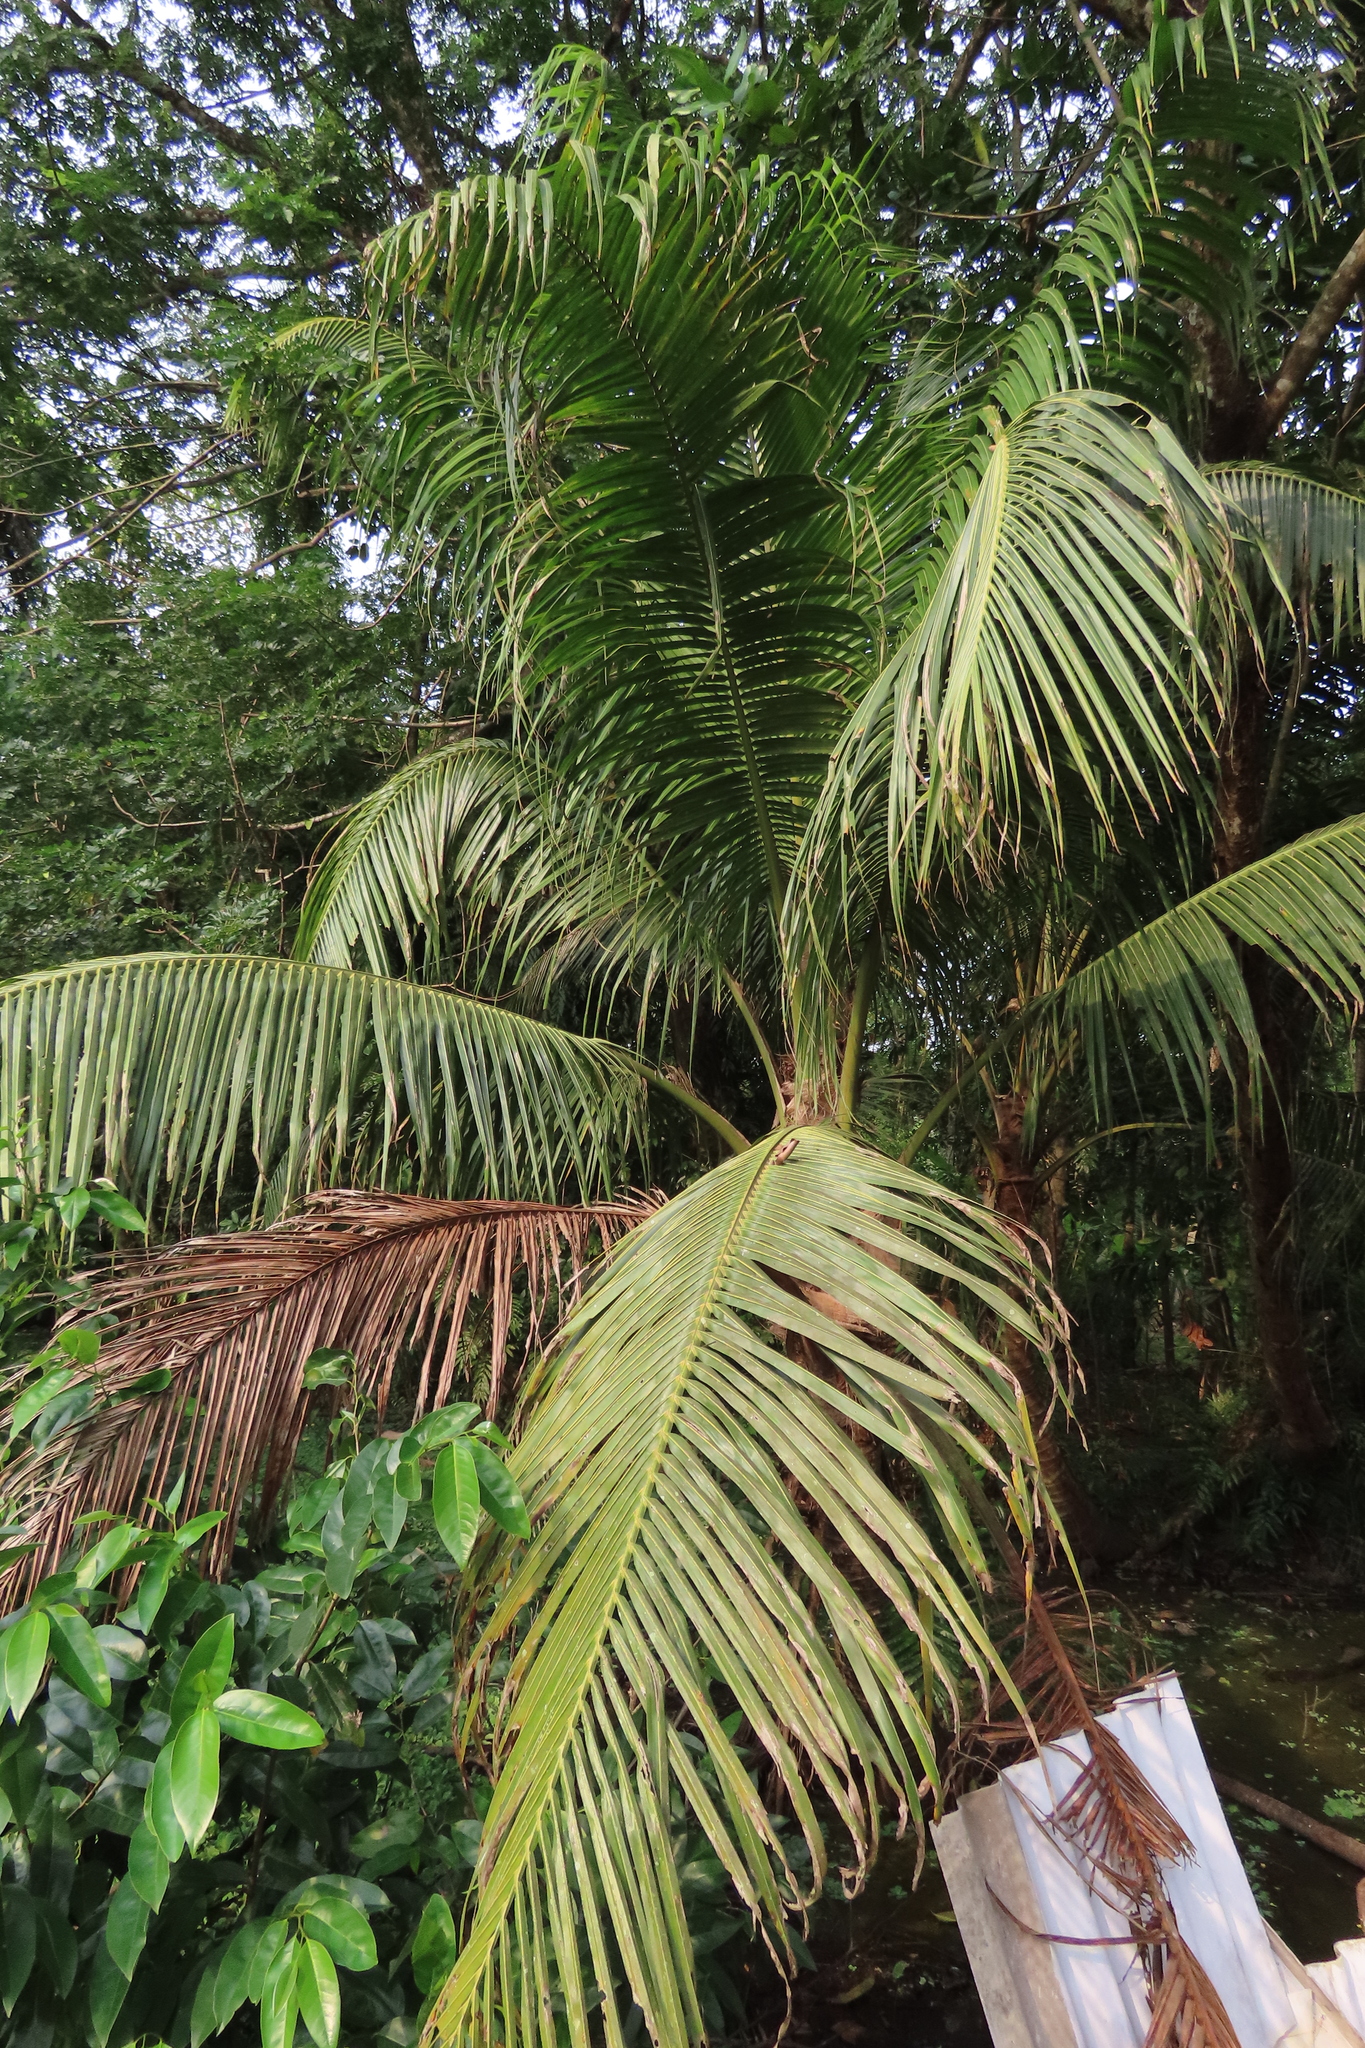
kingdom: Plantae
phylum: Tracheophyta
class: Liliopsida
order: Arecales
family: Arecaceae
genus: Cocos
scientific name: Cocos nucifera
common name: Coconut palm
